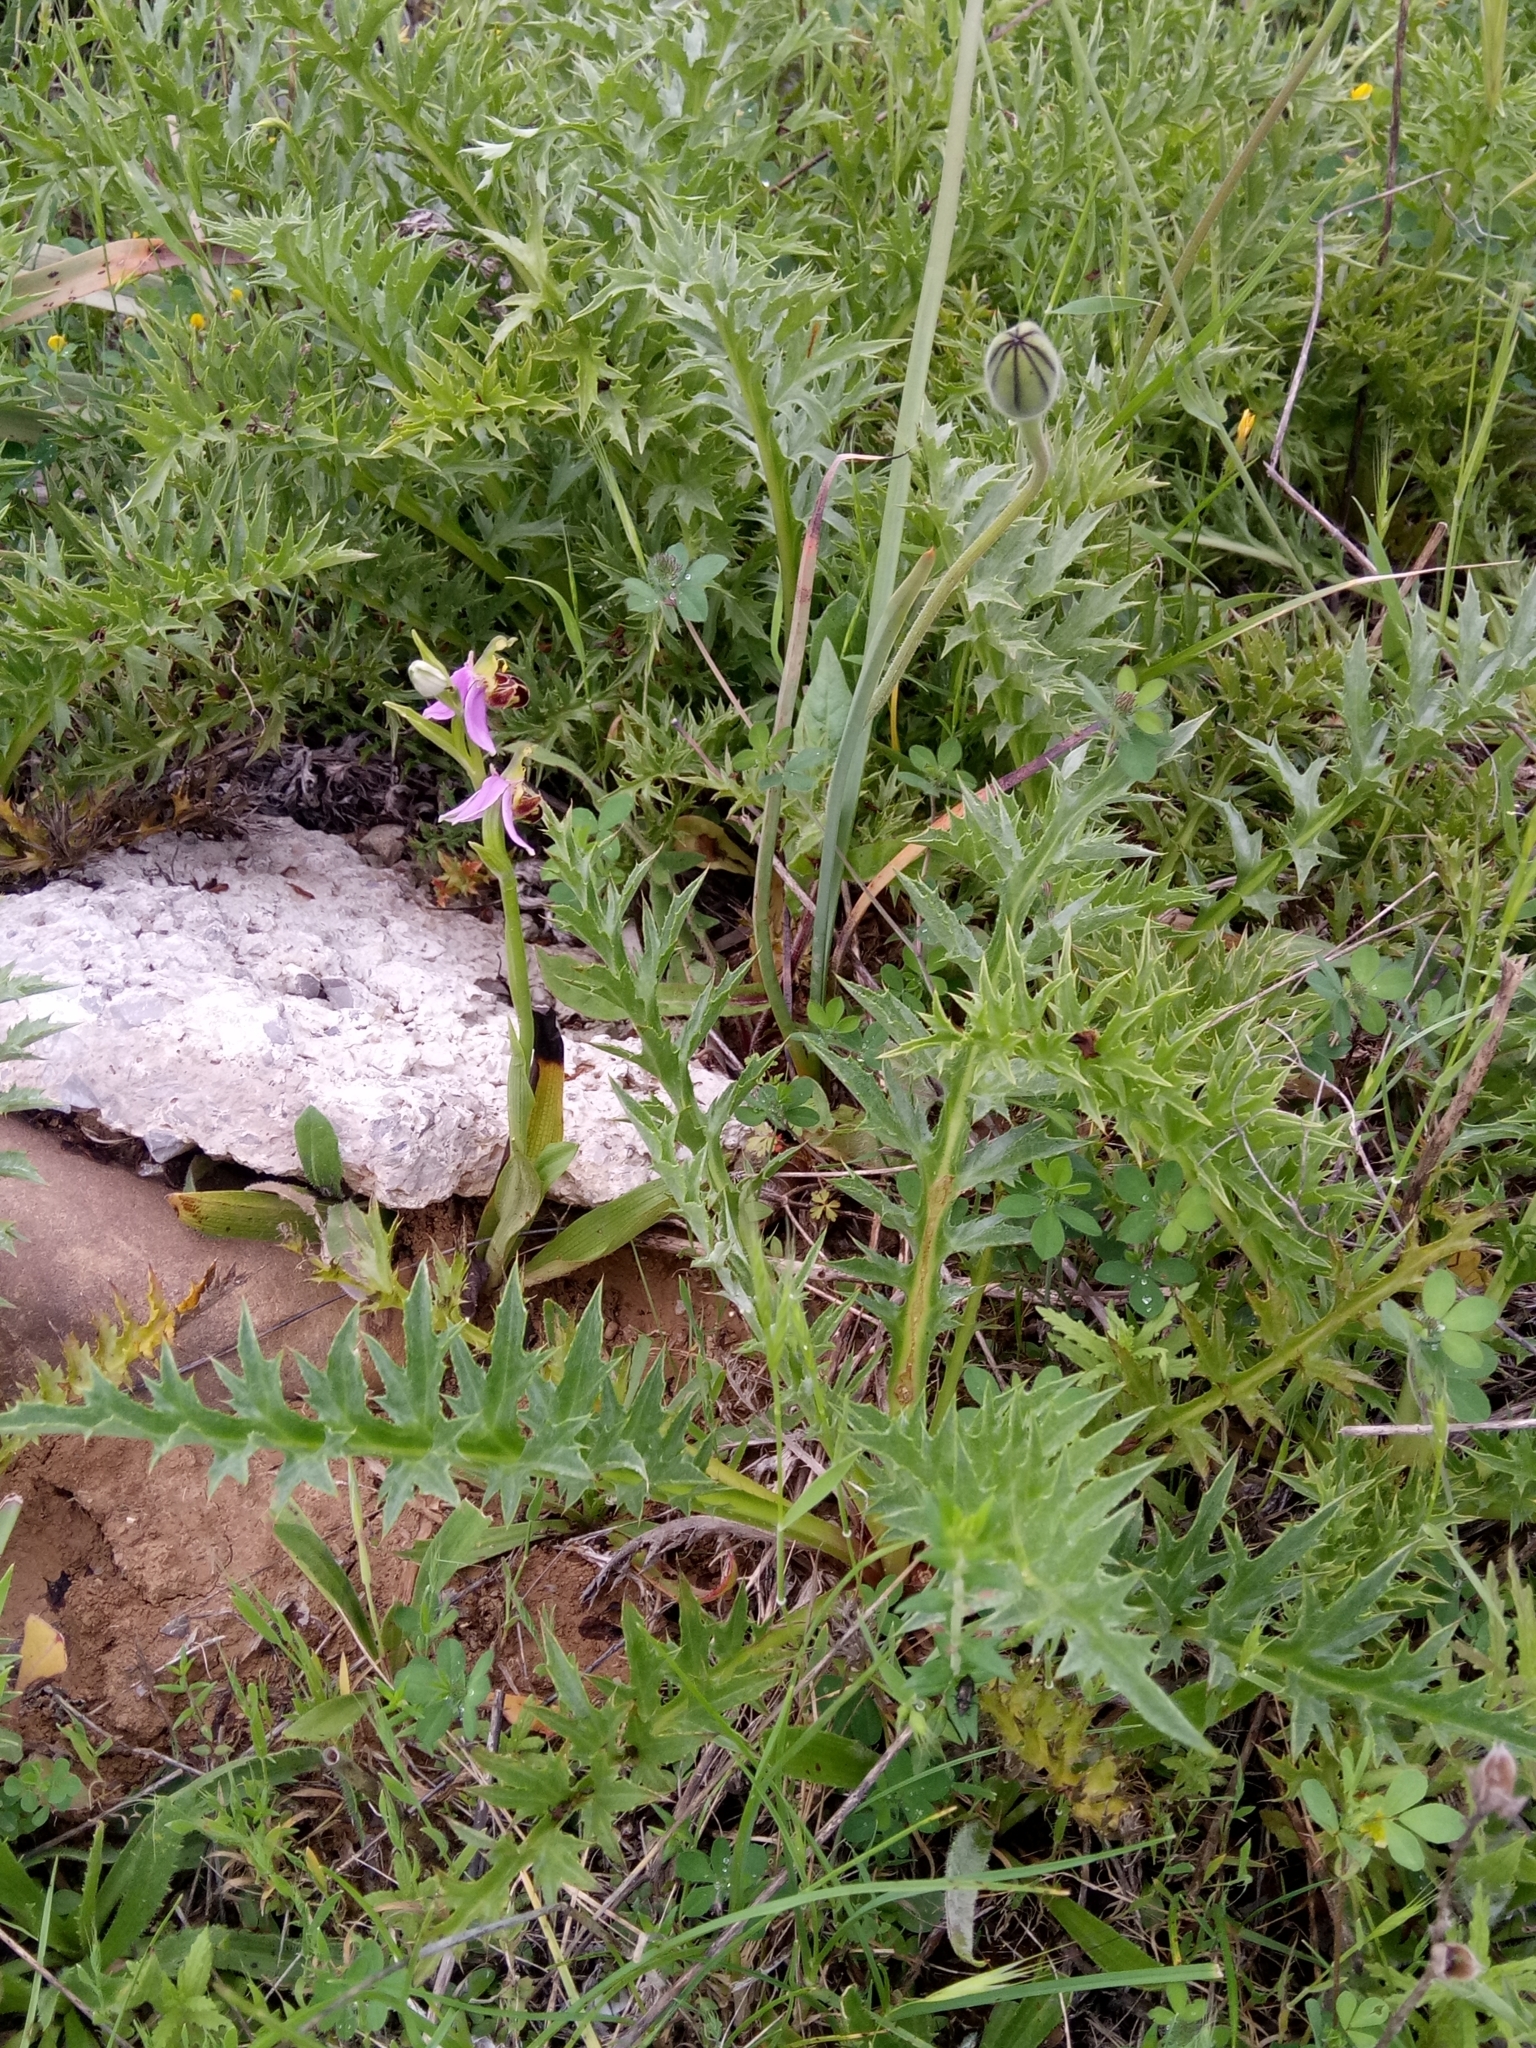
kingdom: Plantae
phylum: Tracheophyta
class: Liliopsida
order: Asparagales
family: Orchidaceae
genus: Ophrys
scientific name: Ophrys apifera
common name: Bee orchid
